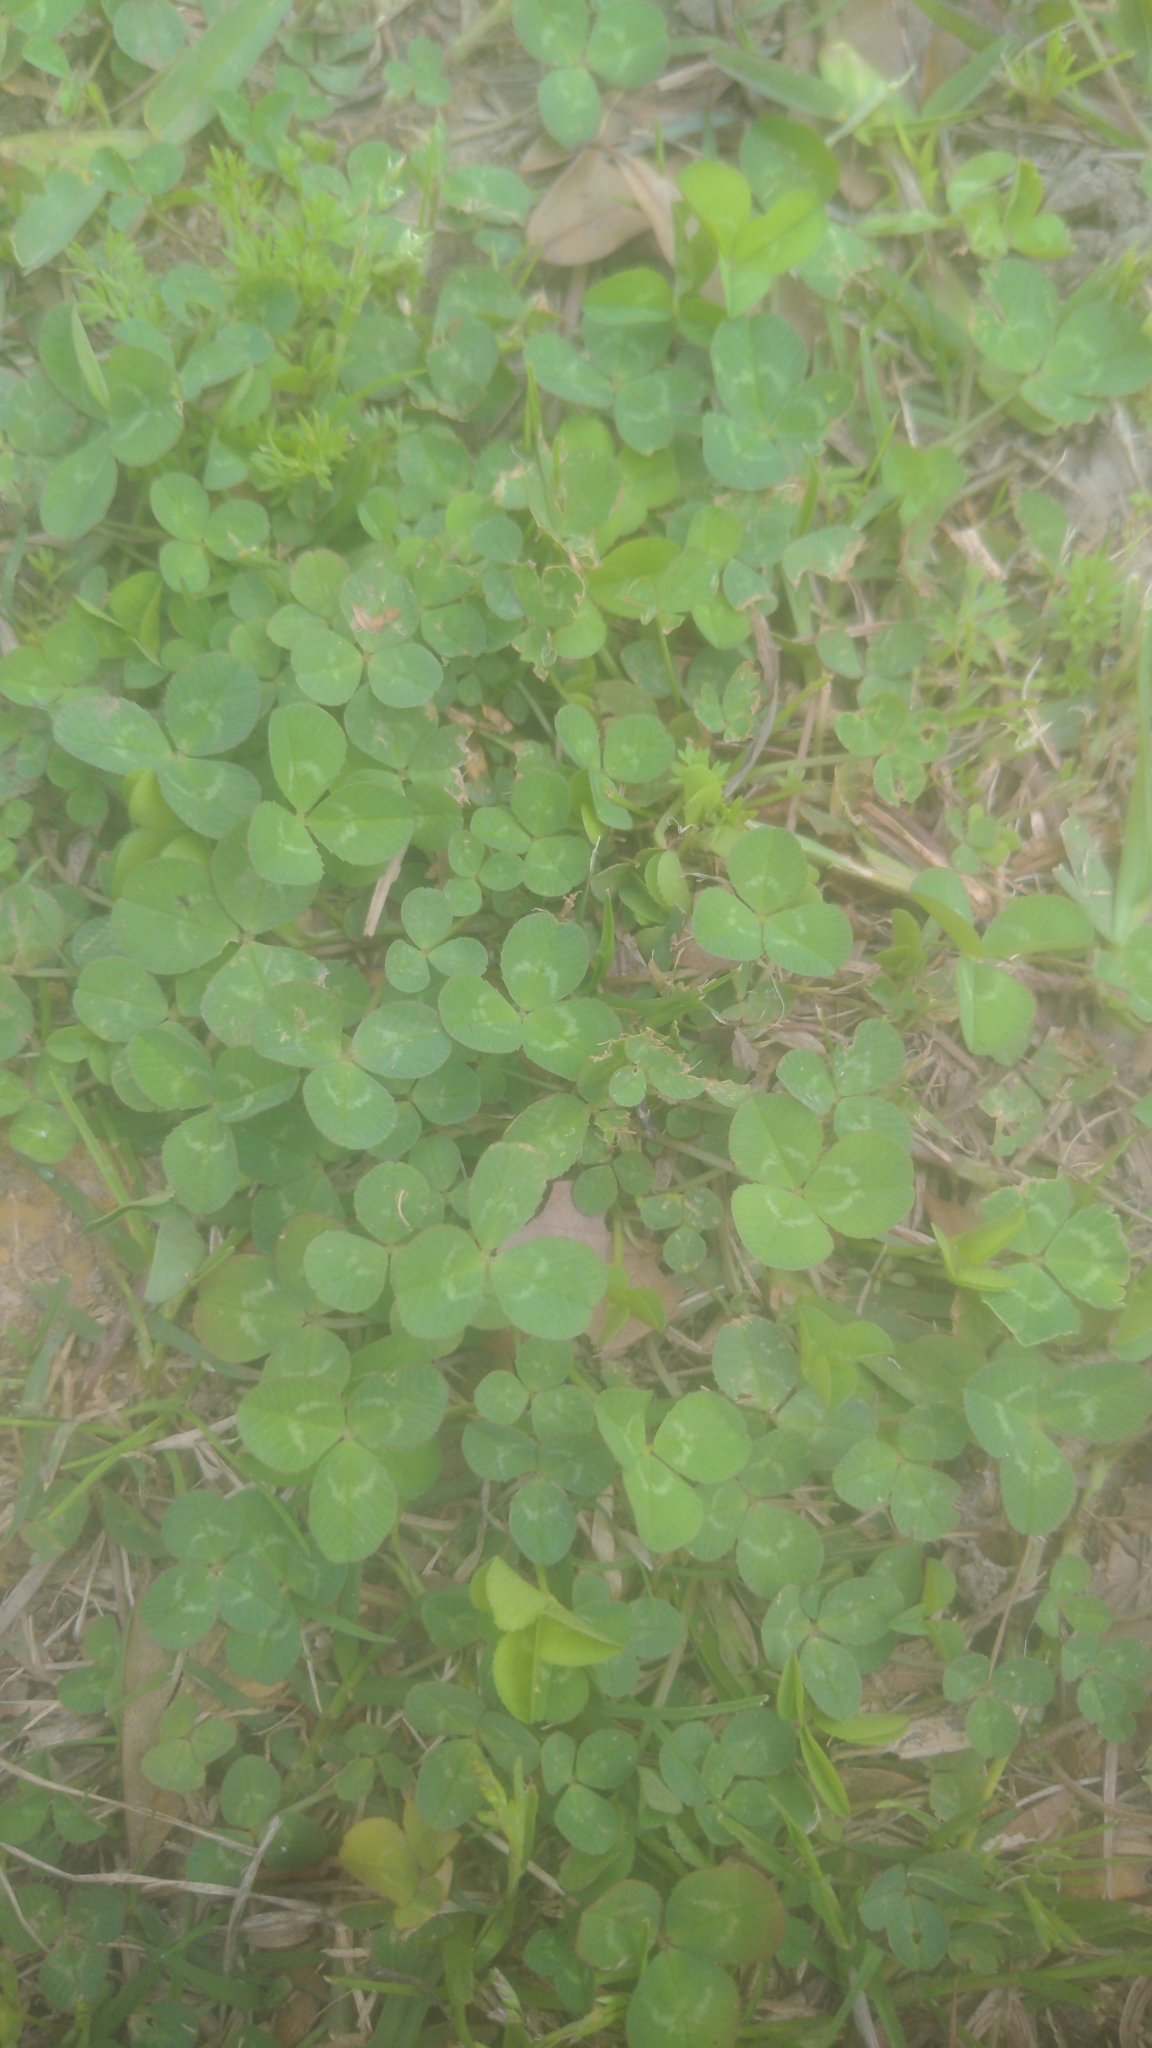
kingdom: Plantae
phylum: Tracheophyta
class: Magnoliopsida
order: Fabales
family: Fabaceae
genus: Trifolium
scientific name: Trifolium repens
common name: White clover
